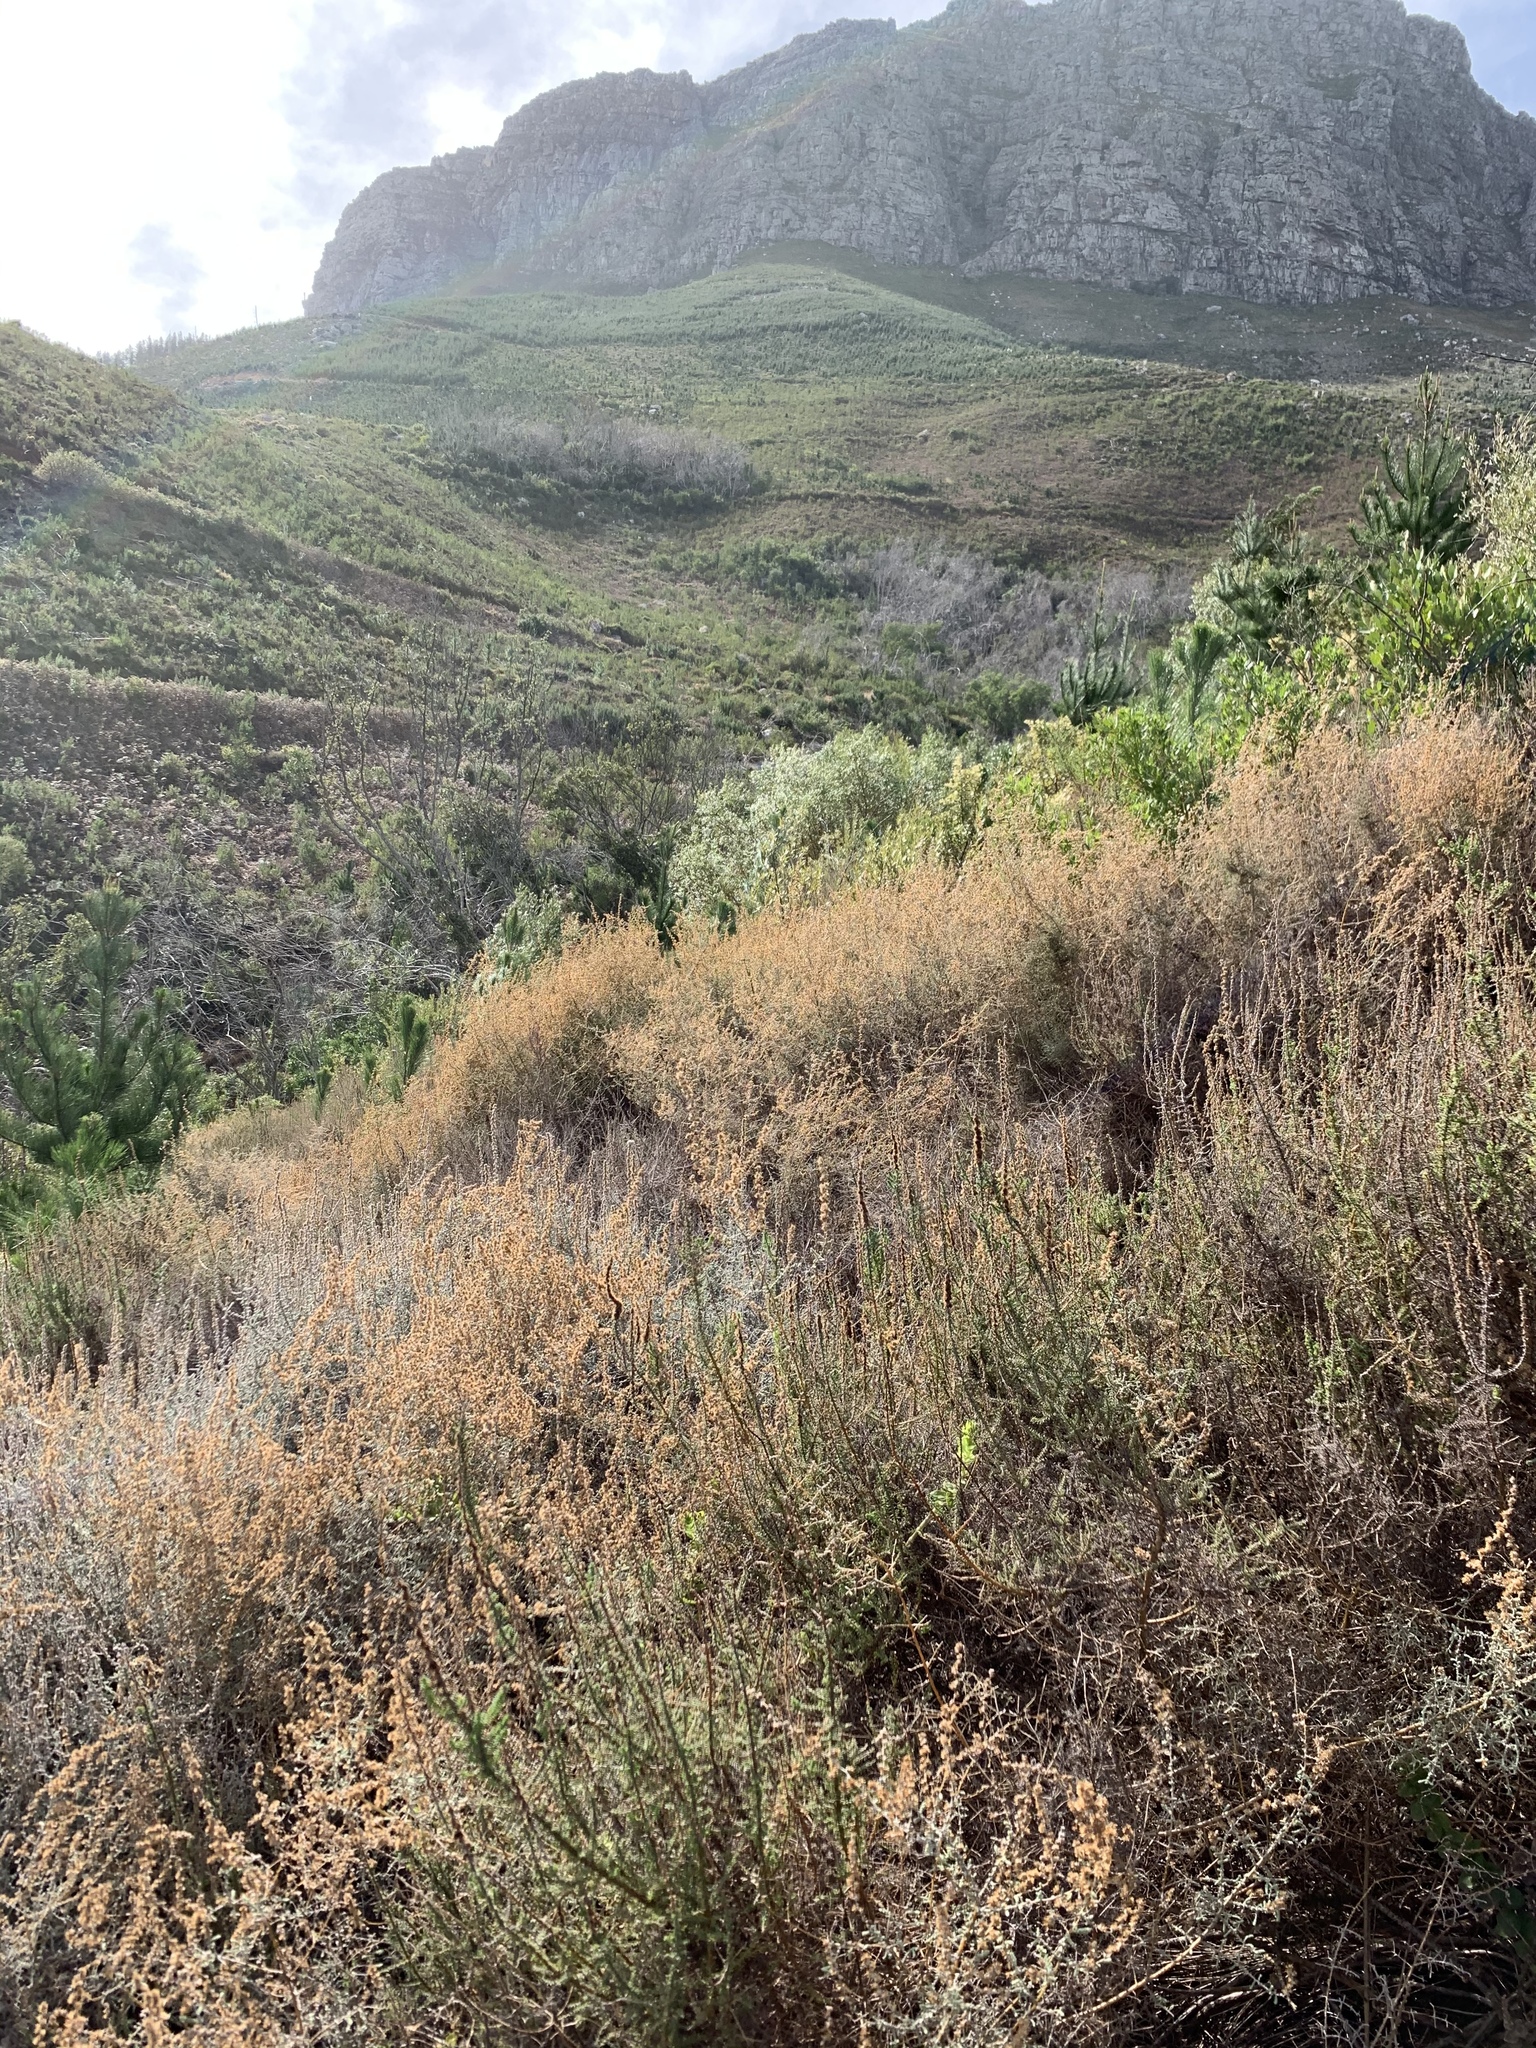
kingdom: Plantae
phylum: Tracheophyta
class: Magnoliopsida
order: Asterales
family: Asteraceae
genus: Seriphium
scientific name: Seriphium plumosum
